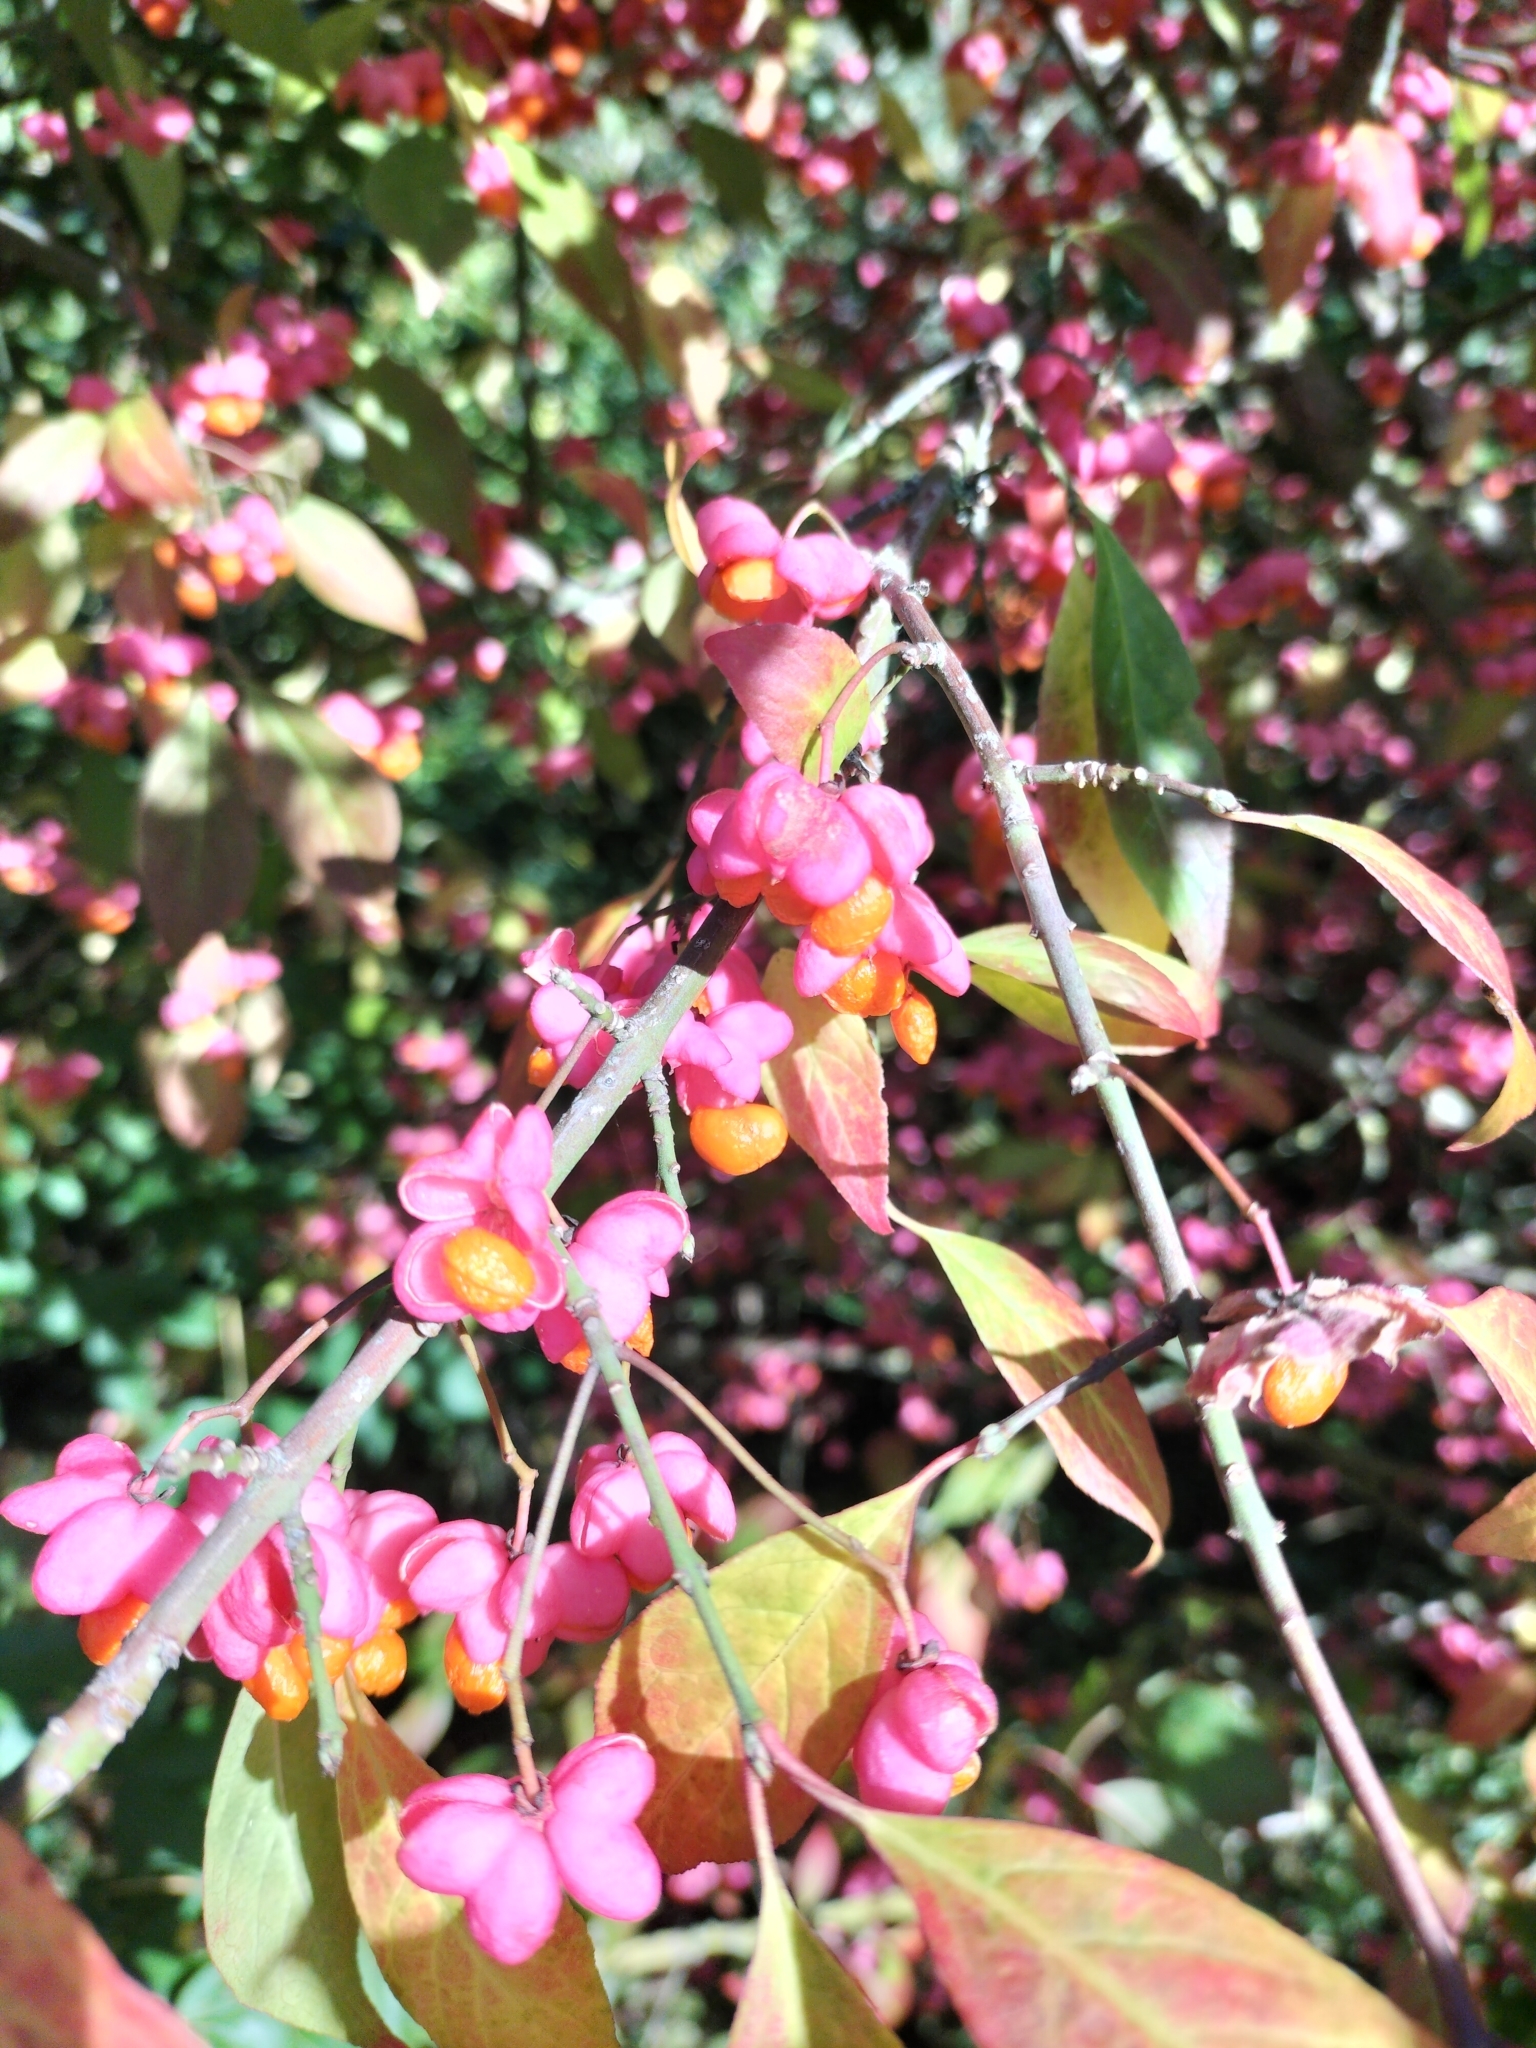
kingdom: Plantae
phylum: Tracheophyta
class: Magnoliopsida
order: Celastrales
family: Celastraceae
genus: Euonymus
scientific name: Euonymus europaeus
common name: Spindle
